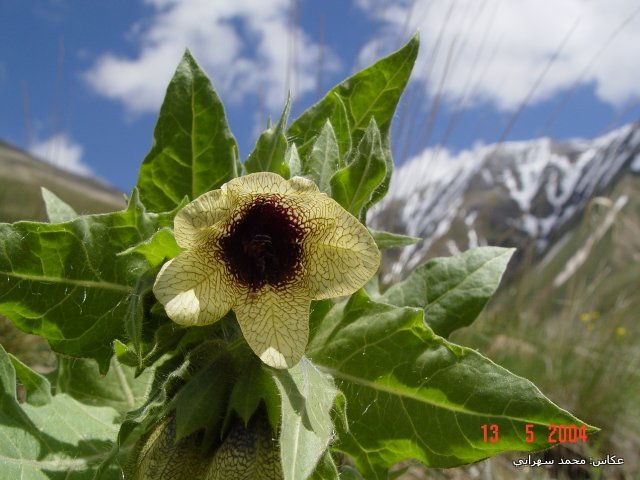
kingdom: Plantae
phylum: Tracheophyta
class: Magnoliopsida
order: Solanales
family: Solanaceae
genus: Hyoscyamus
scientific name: Hyoscyamus niger
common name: Henbane
